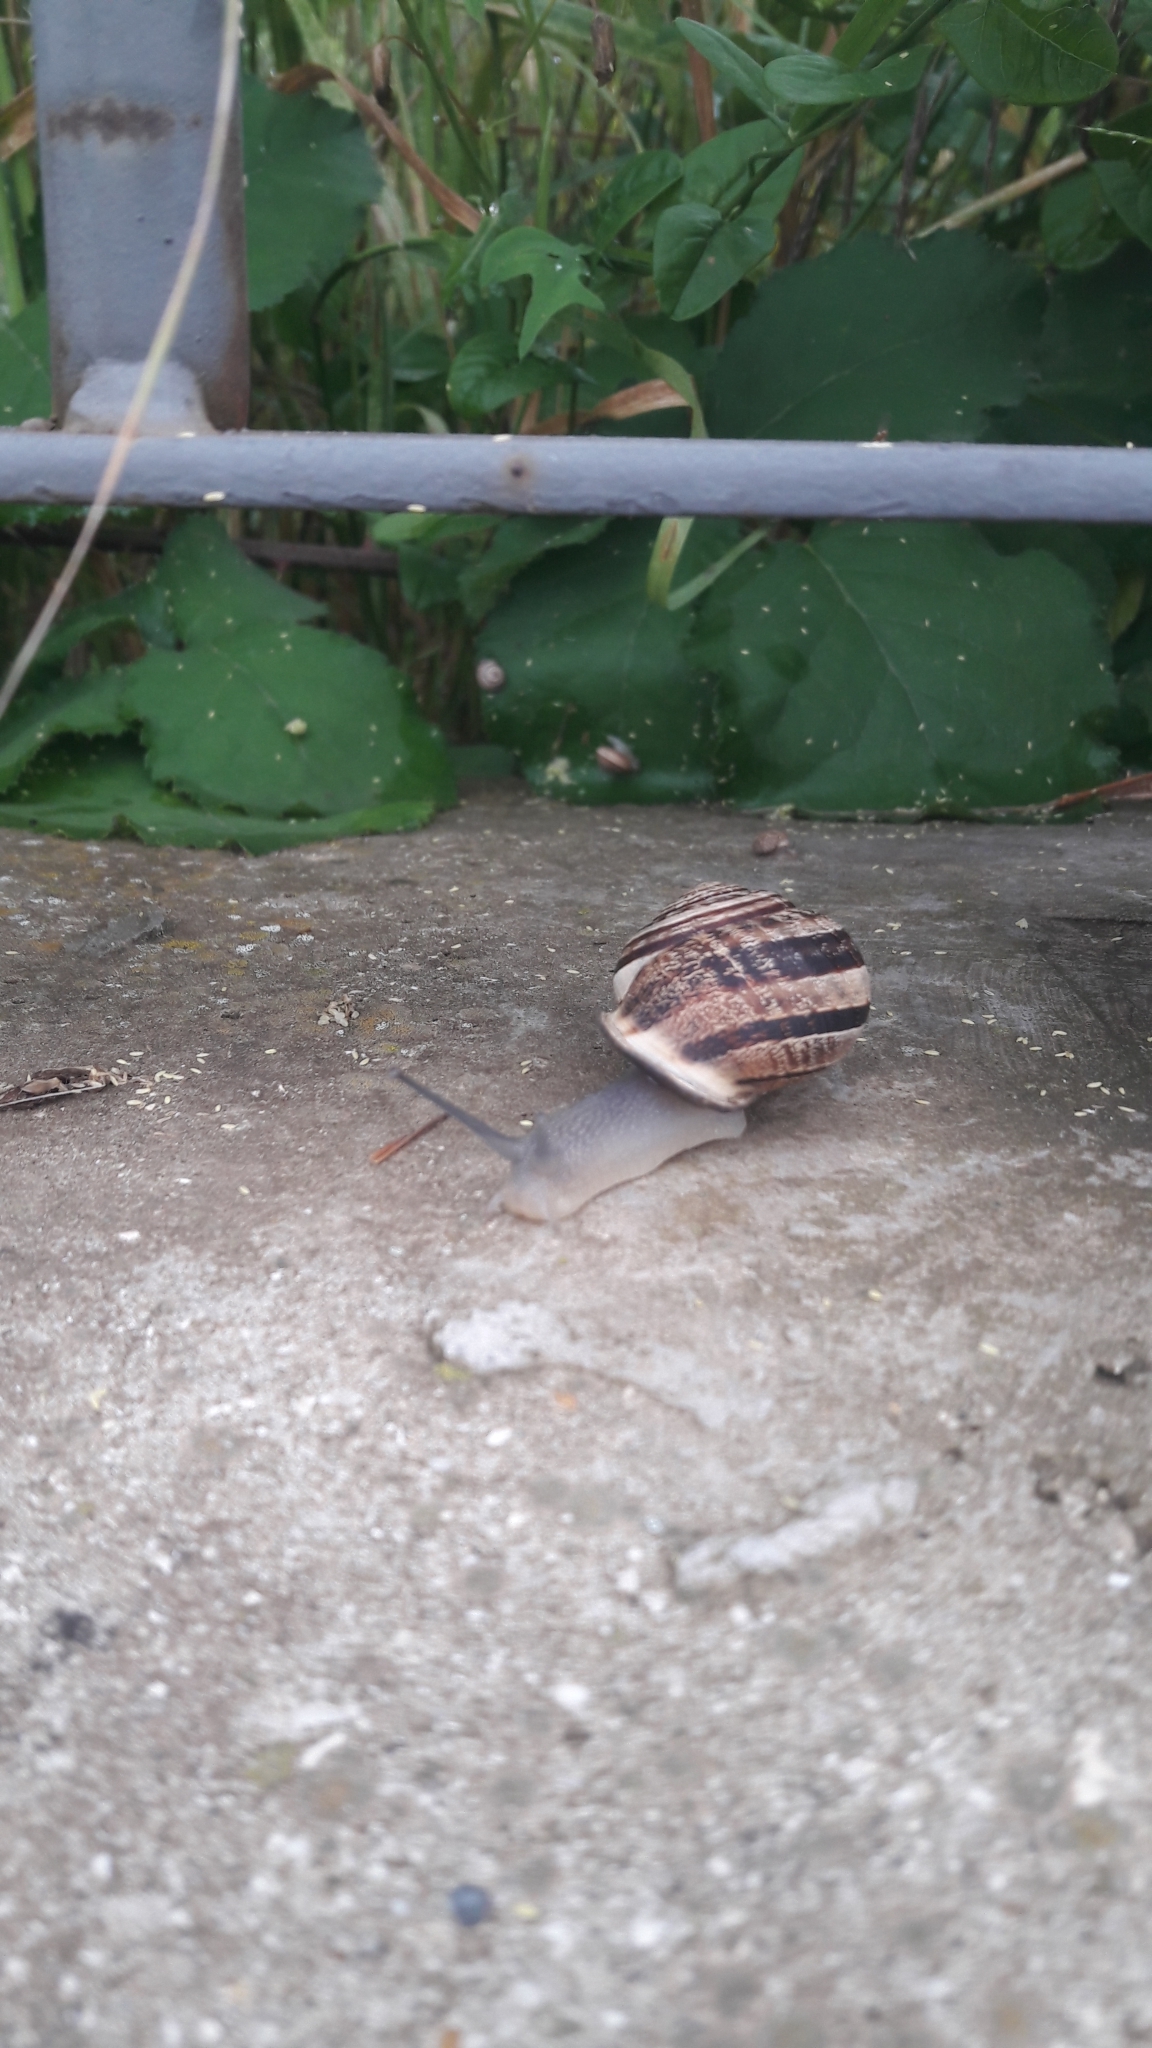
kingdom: Animalia
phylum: Mollusca
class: Gastropoda
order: Stylommatophora
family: Helicidae
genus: Cornu
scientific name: Cornu aspersum
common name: Brown garden snail
